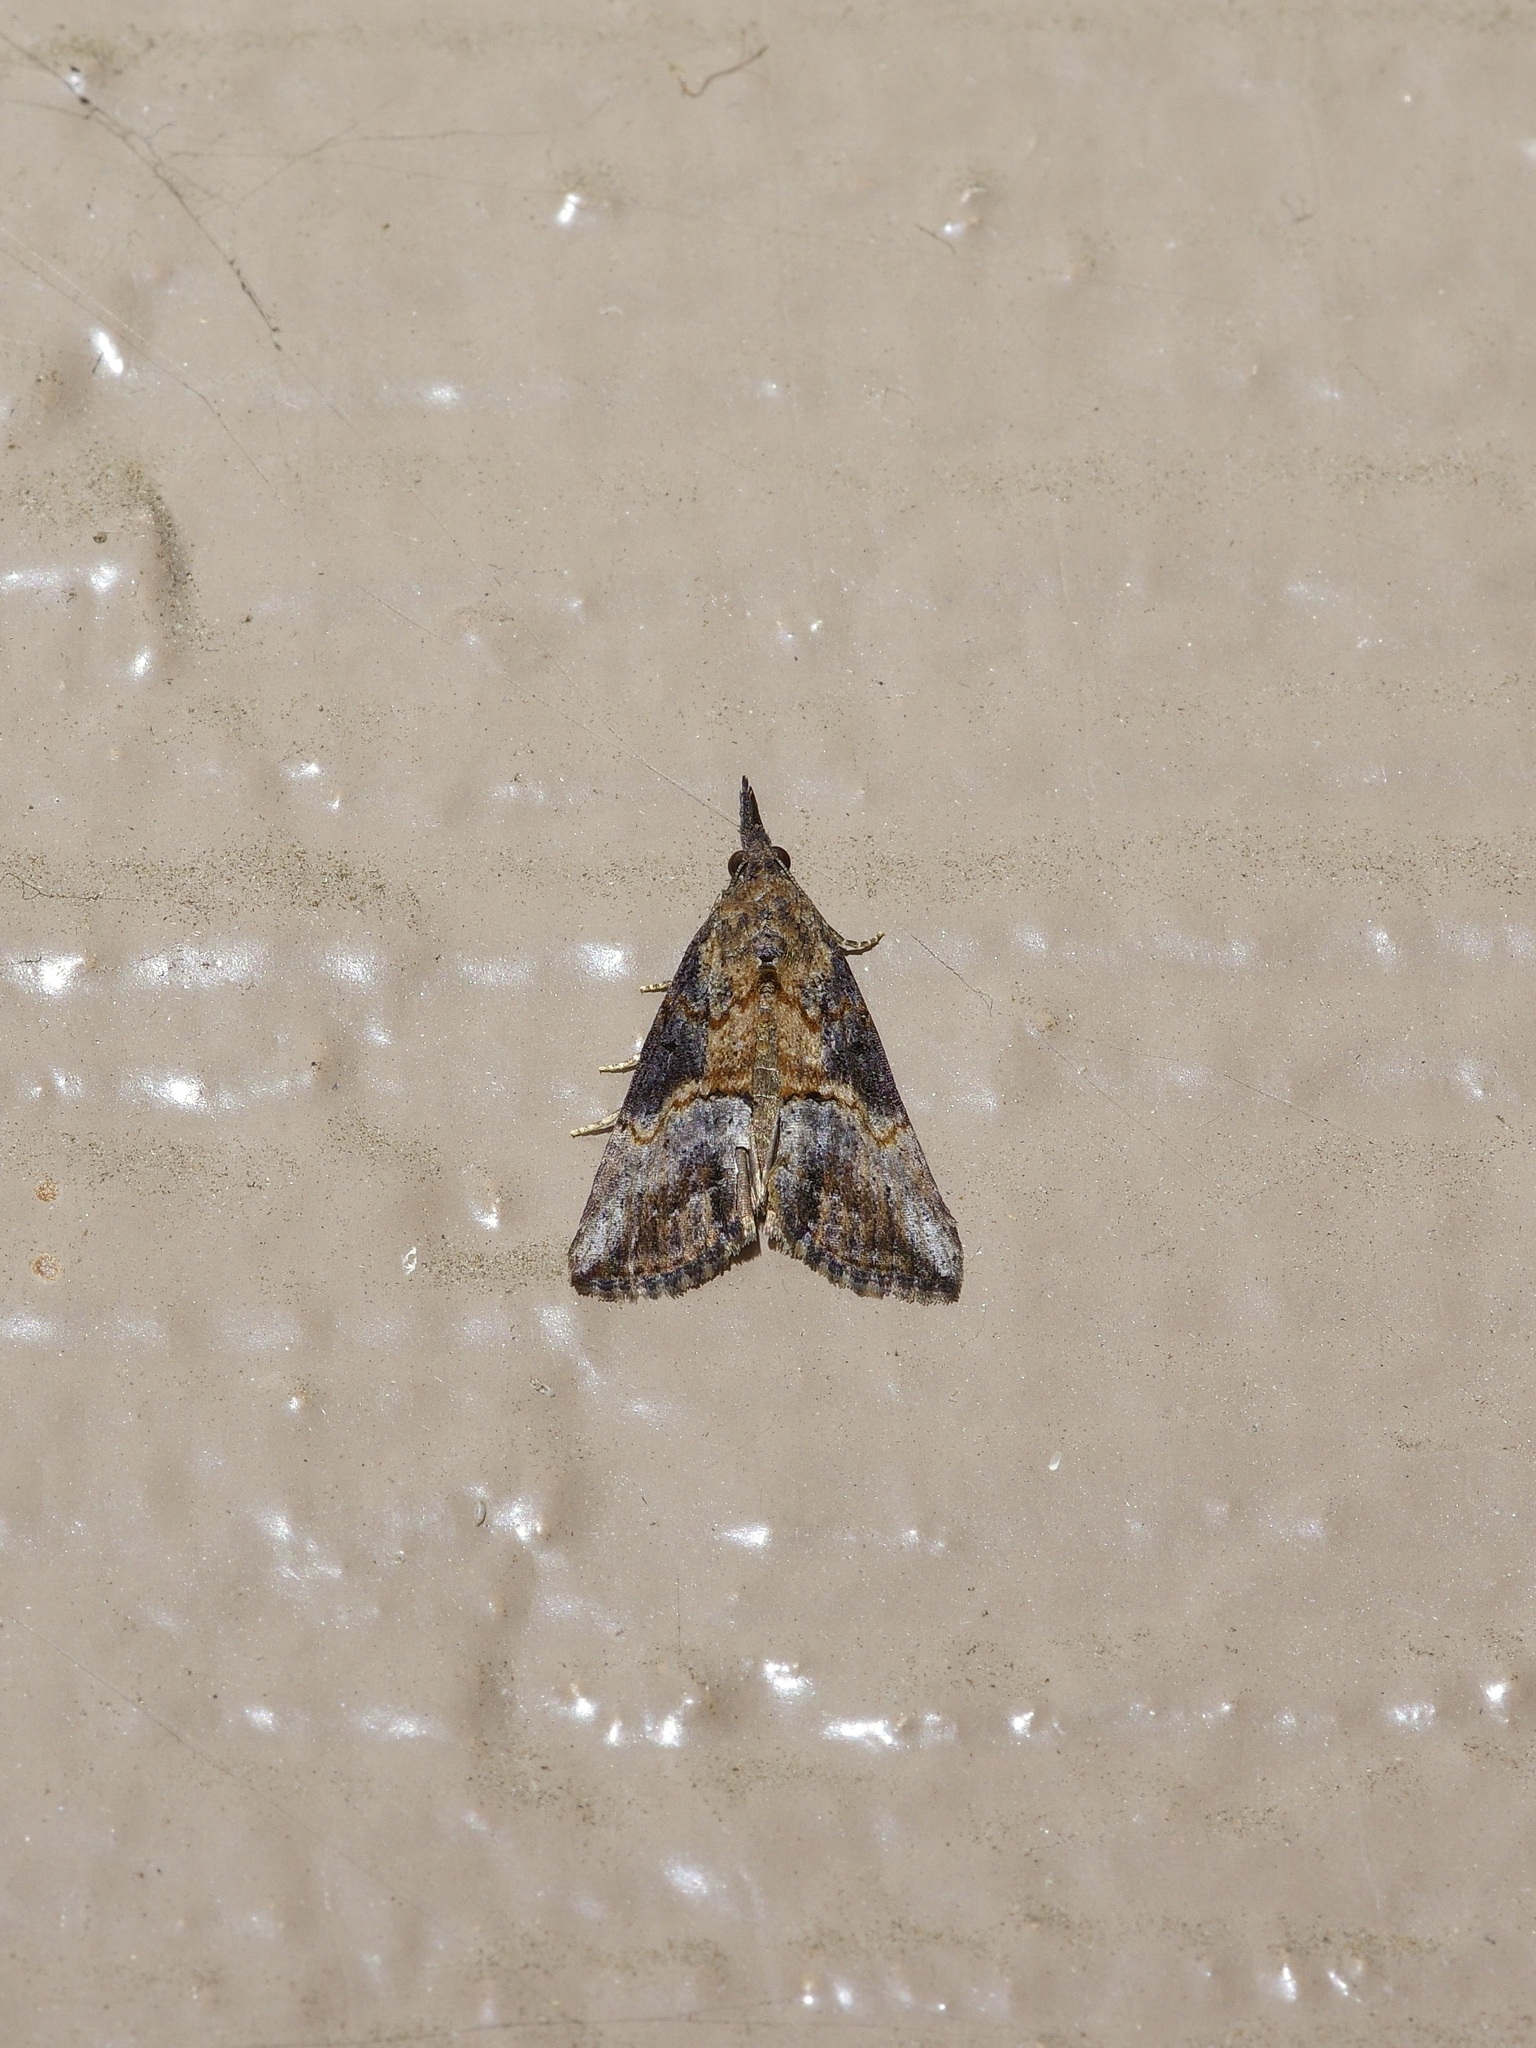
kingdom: Animalia
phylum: Arthropoda
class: Insecta
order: Lepidoptera
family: Erebidae
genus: Hypena
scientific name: Hypena scabra
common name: Green cloverworm
